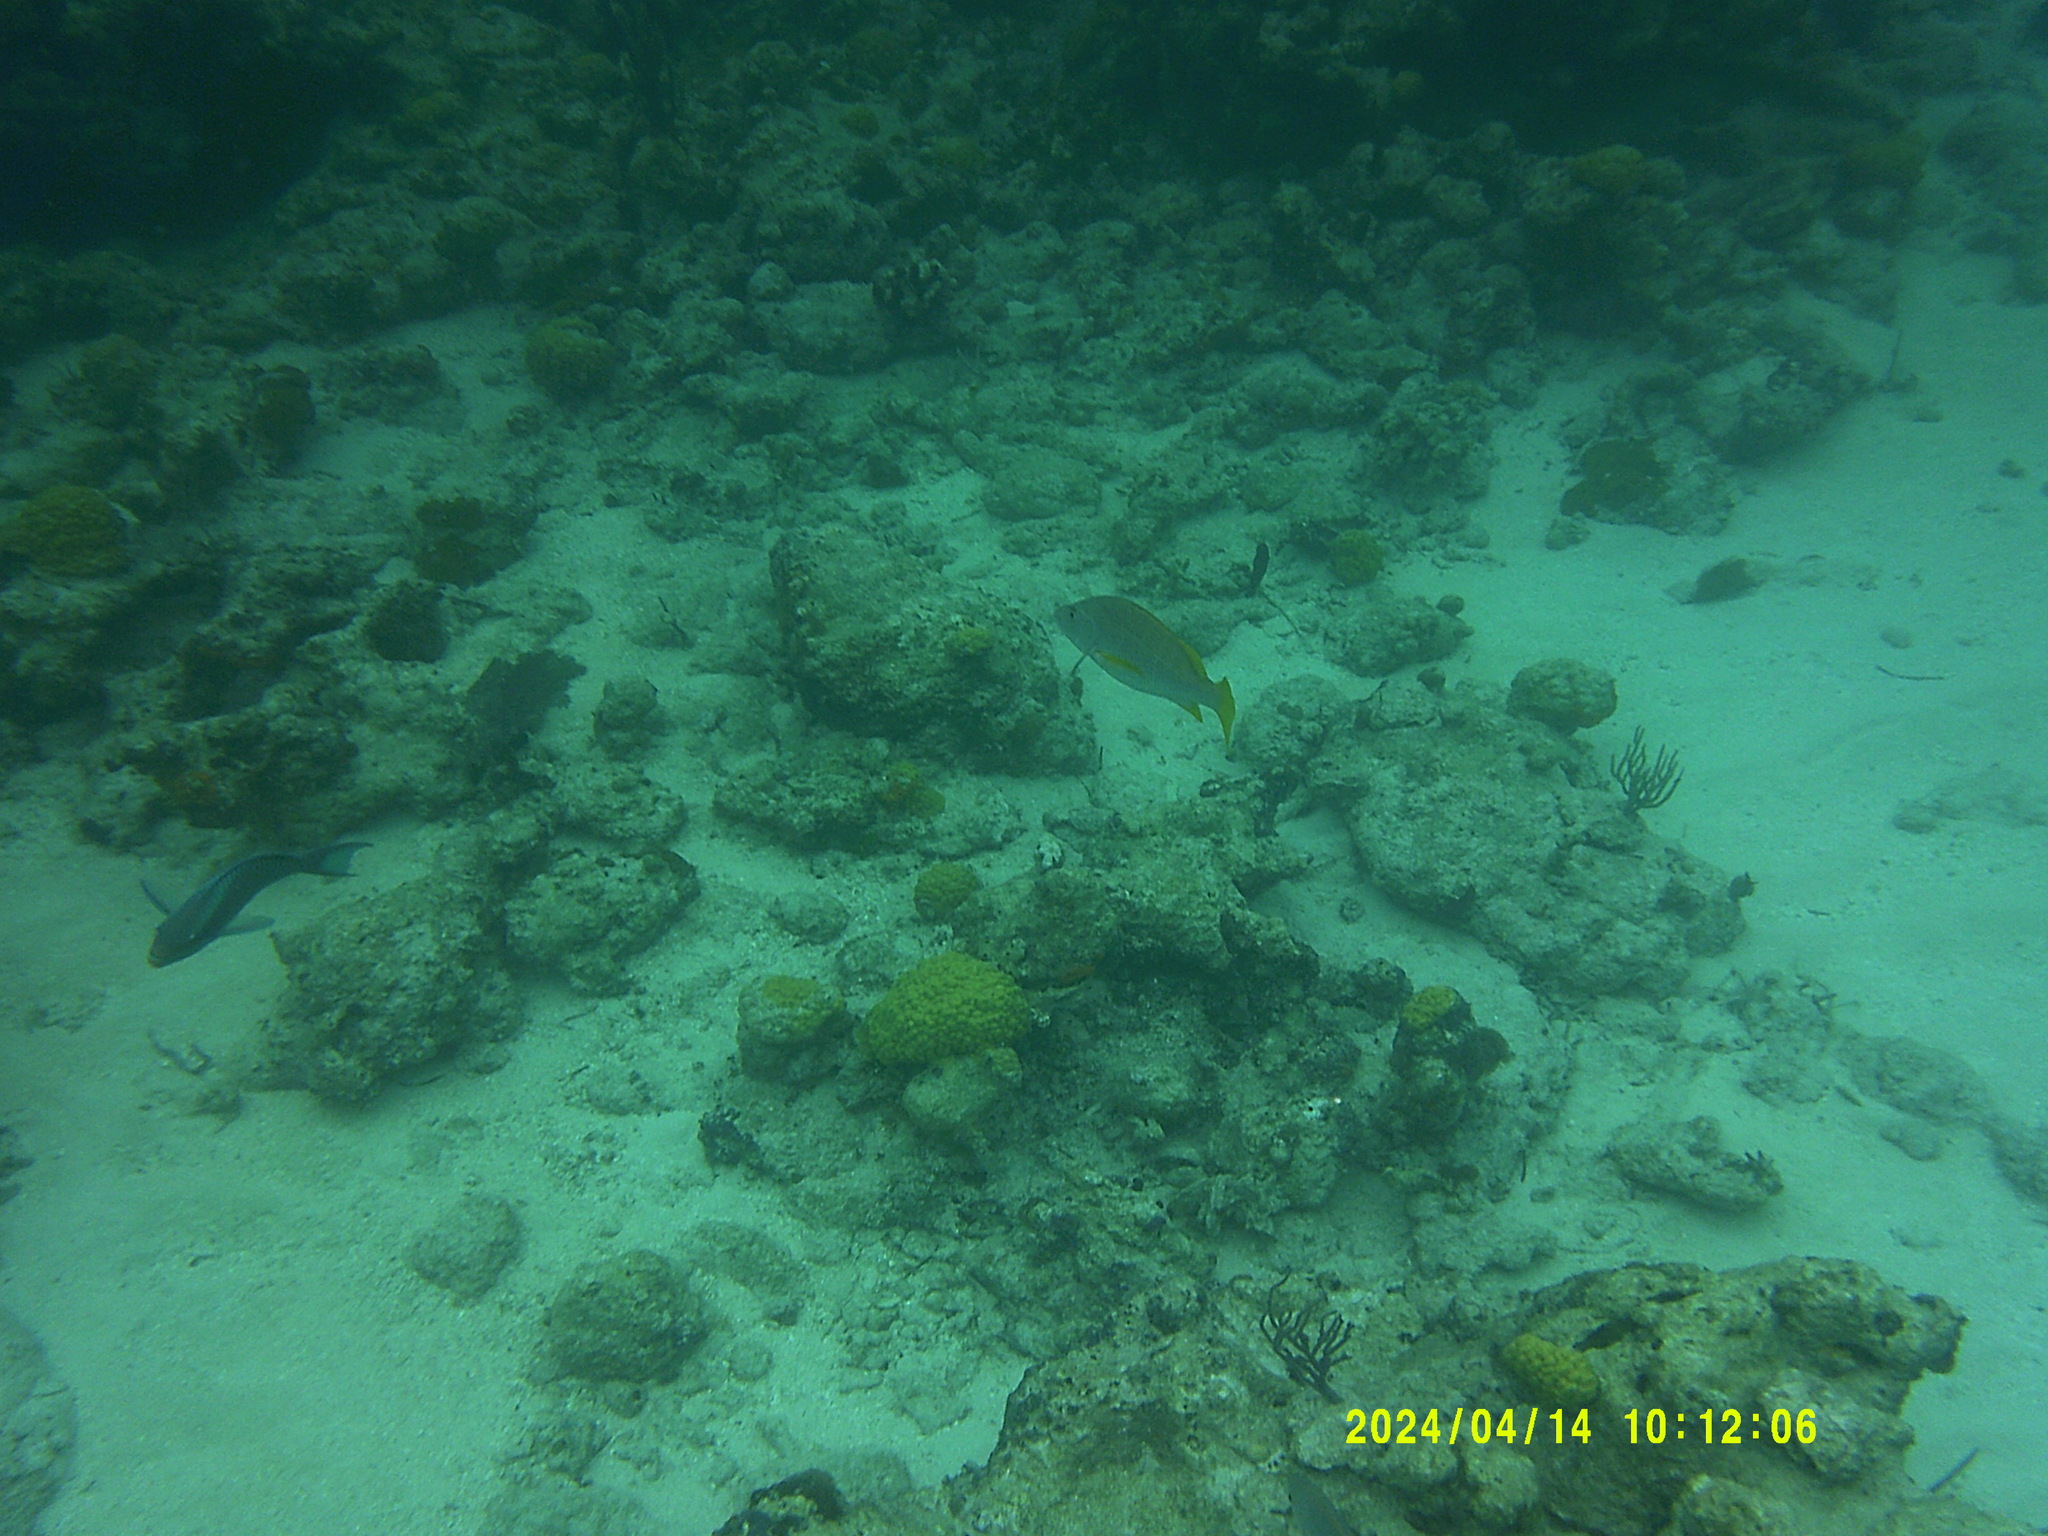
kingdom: Animalia
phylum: Chordata
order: Perciformes
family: Lutjanidae
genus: Ocyurus
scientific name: Ocyurus chrysurus
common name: Yellowtail snapper
